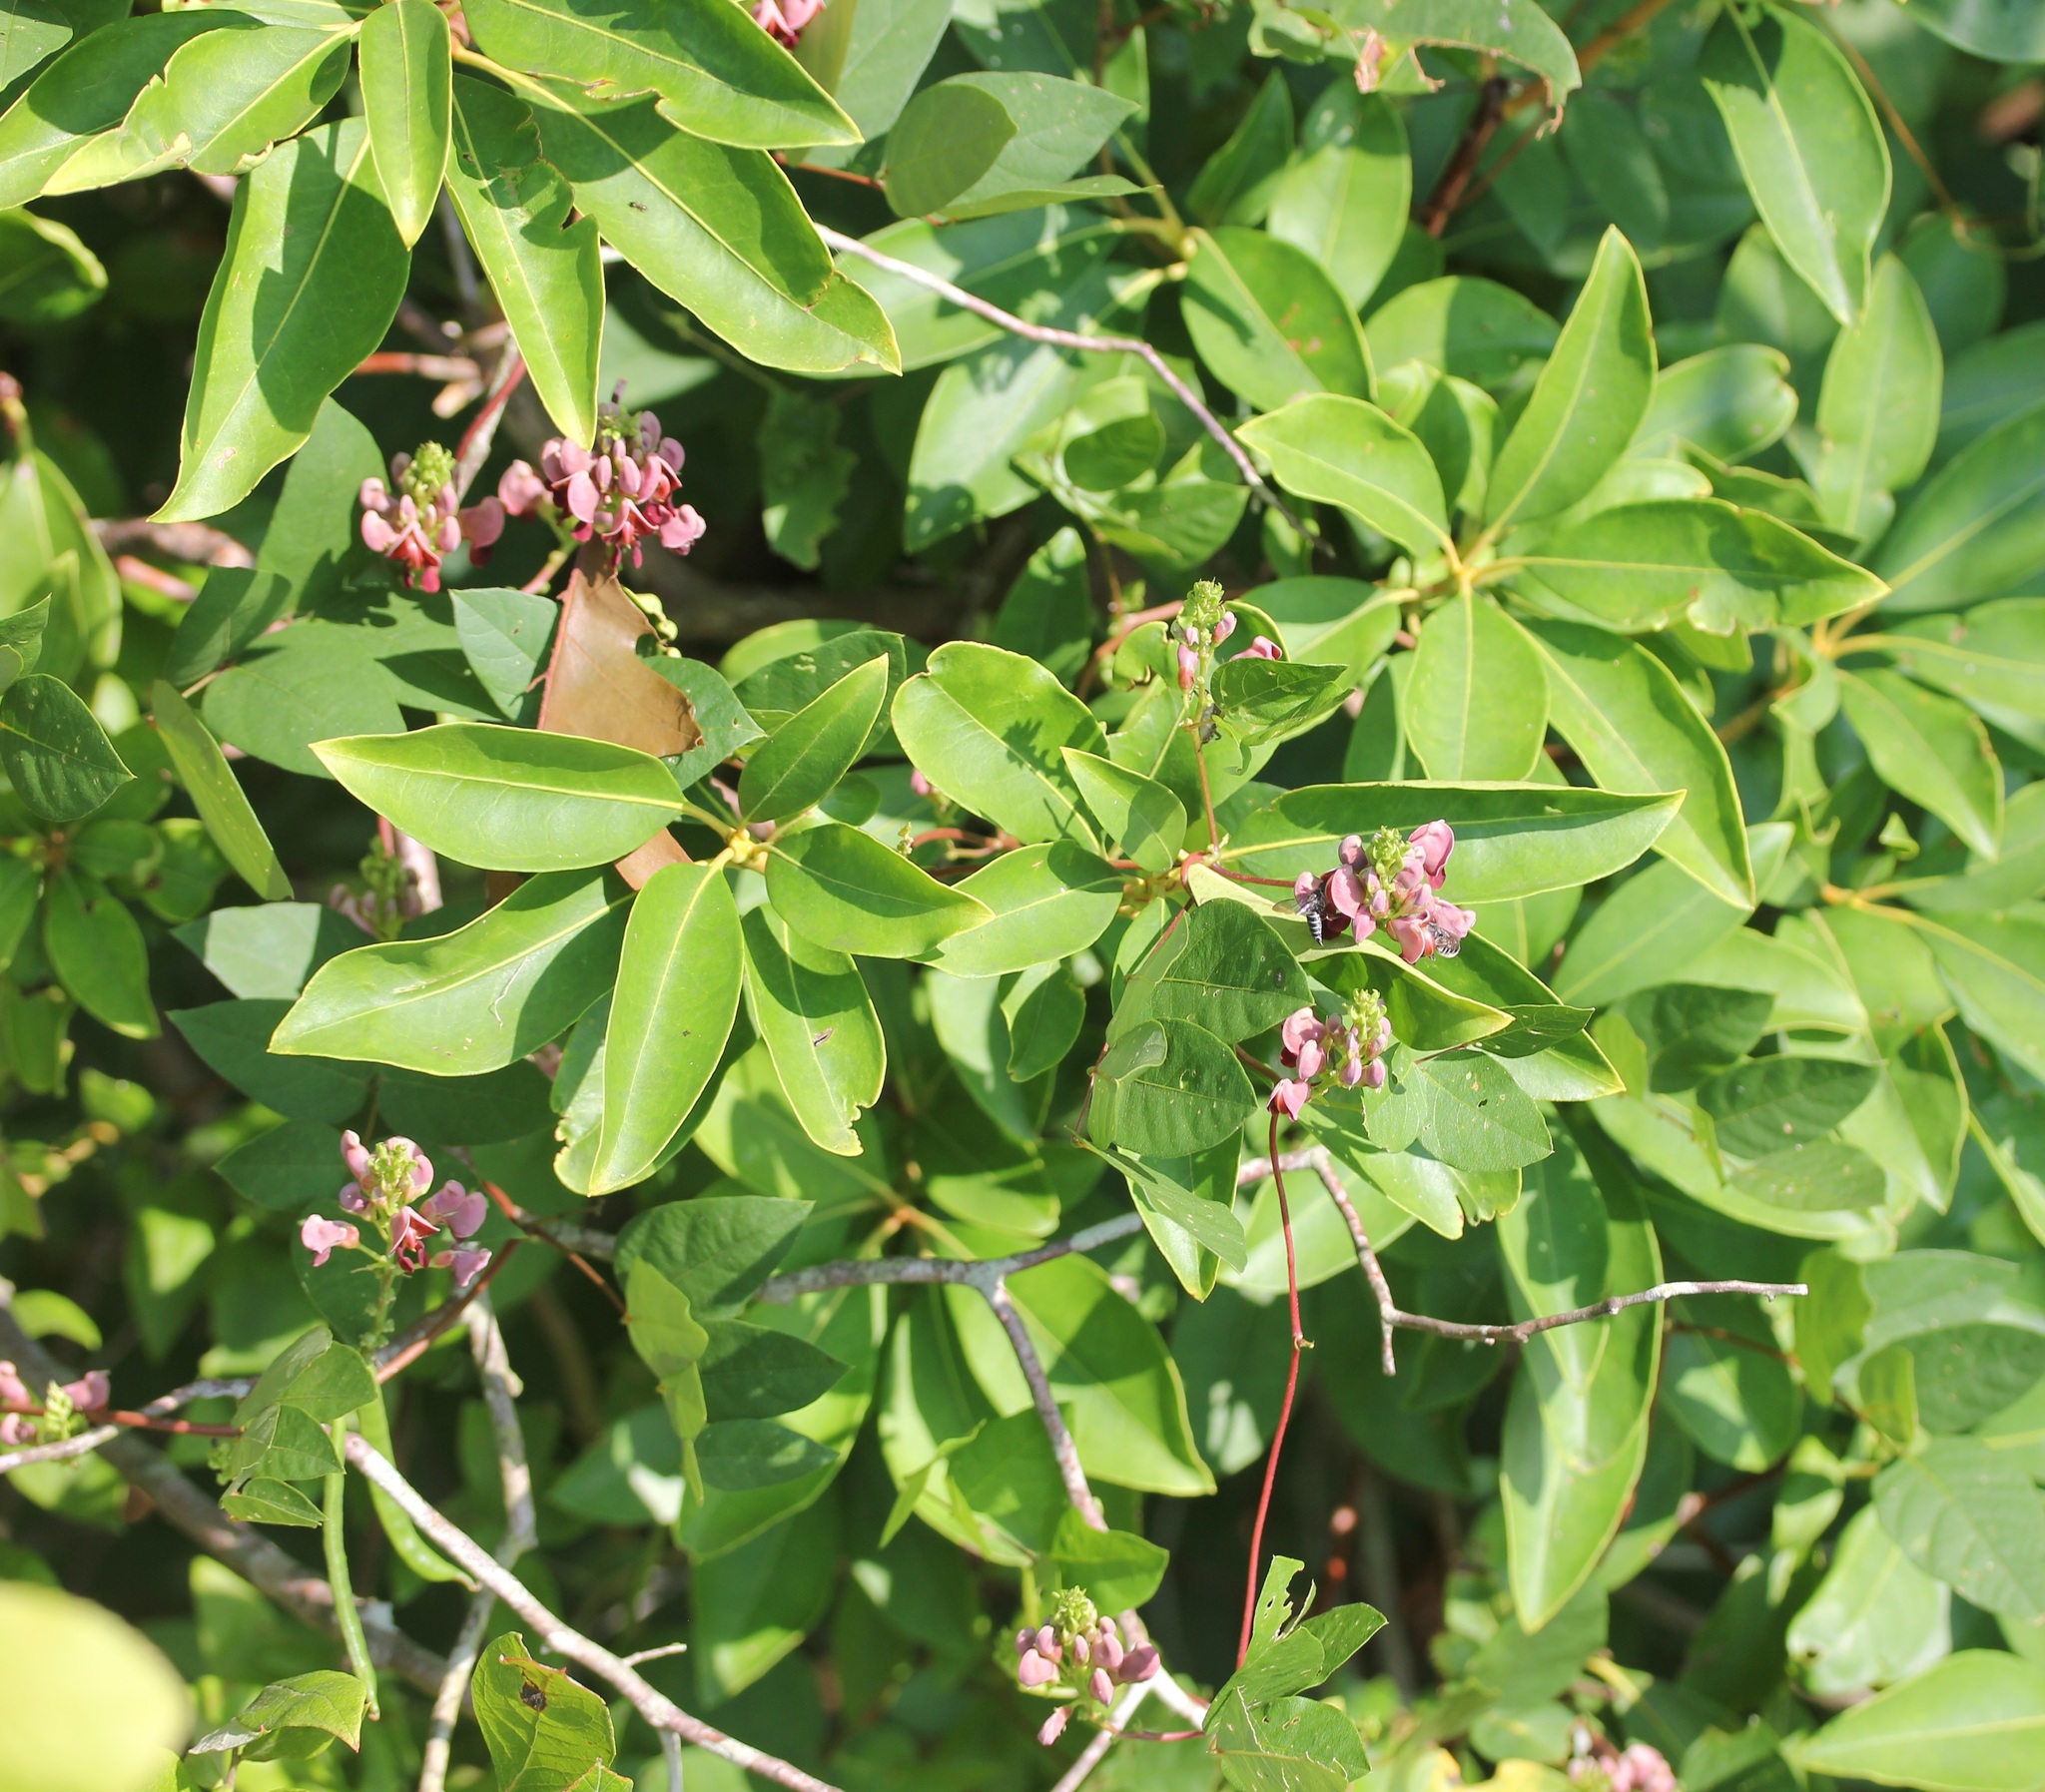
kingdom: Plantae
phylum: Tracheophyta
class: Magnoliopsida
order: Fabales
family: Fabaceae
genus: Apios
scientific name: Apios americana
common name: American potato-bean
